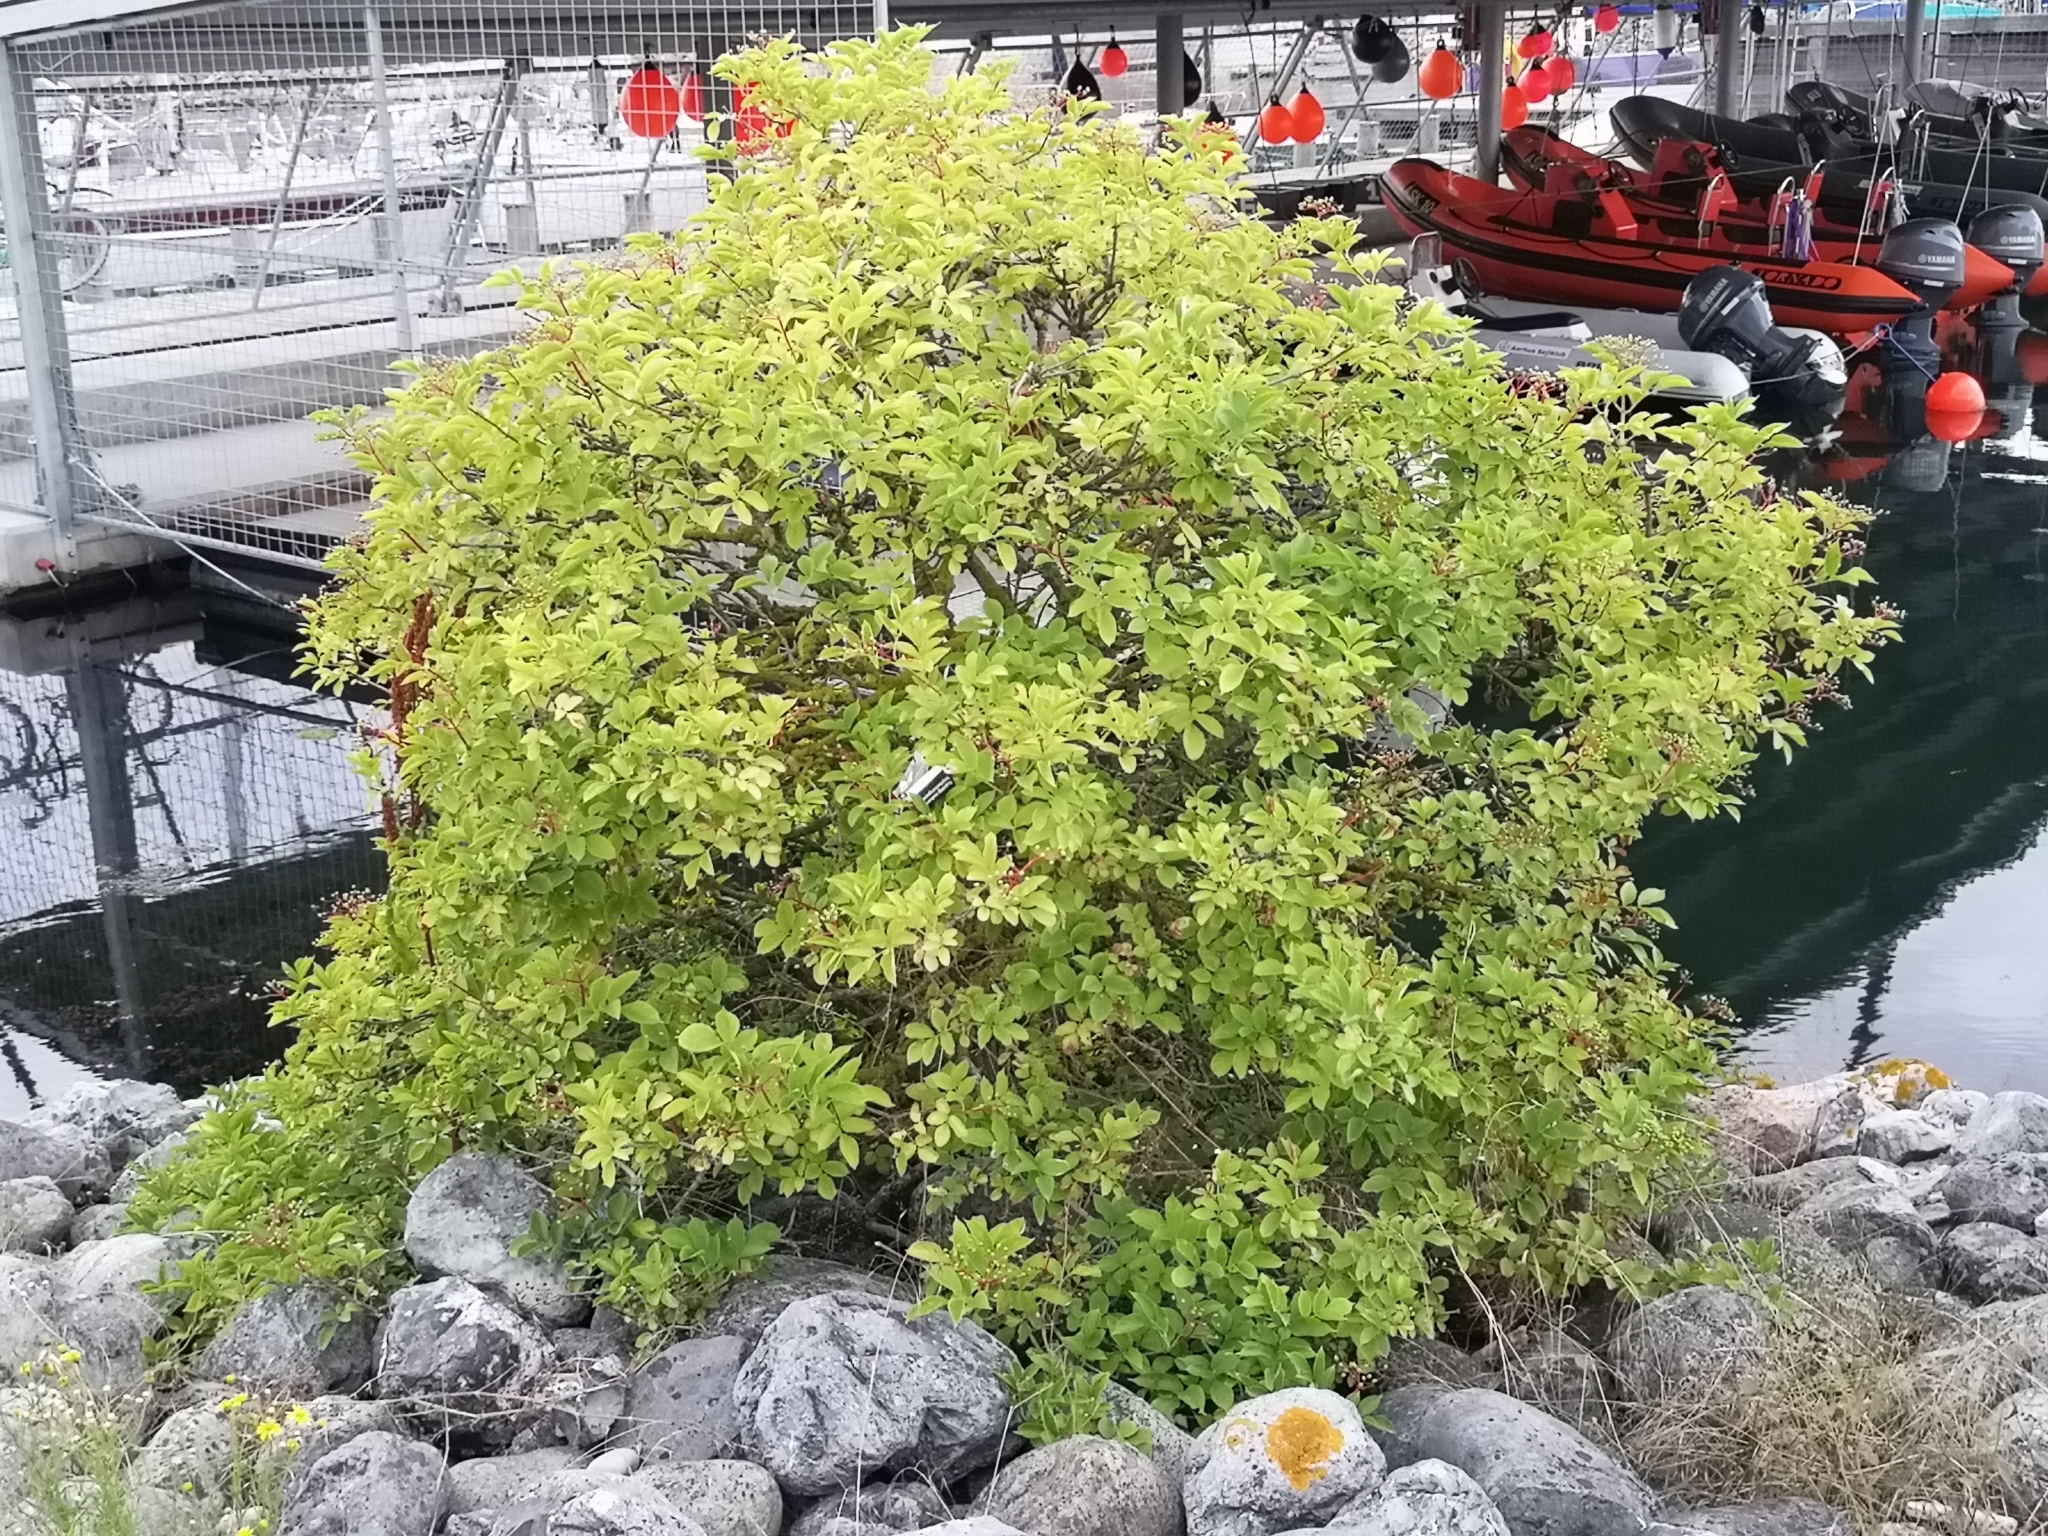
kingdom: Plantae
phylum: Tracheophyta
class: Magnoliopsida
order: Dipsacales
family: Viburnaceae
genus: Sambucus
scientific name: Sambucus nigra
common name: Elder
